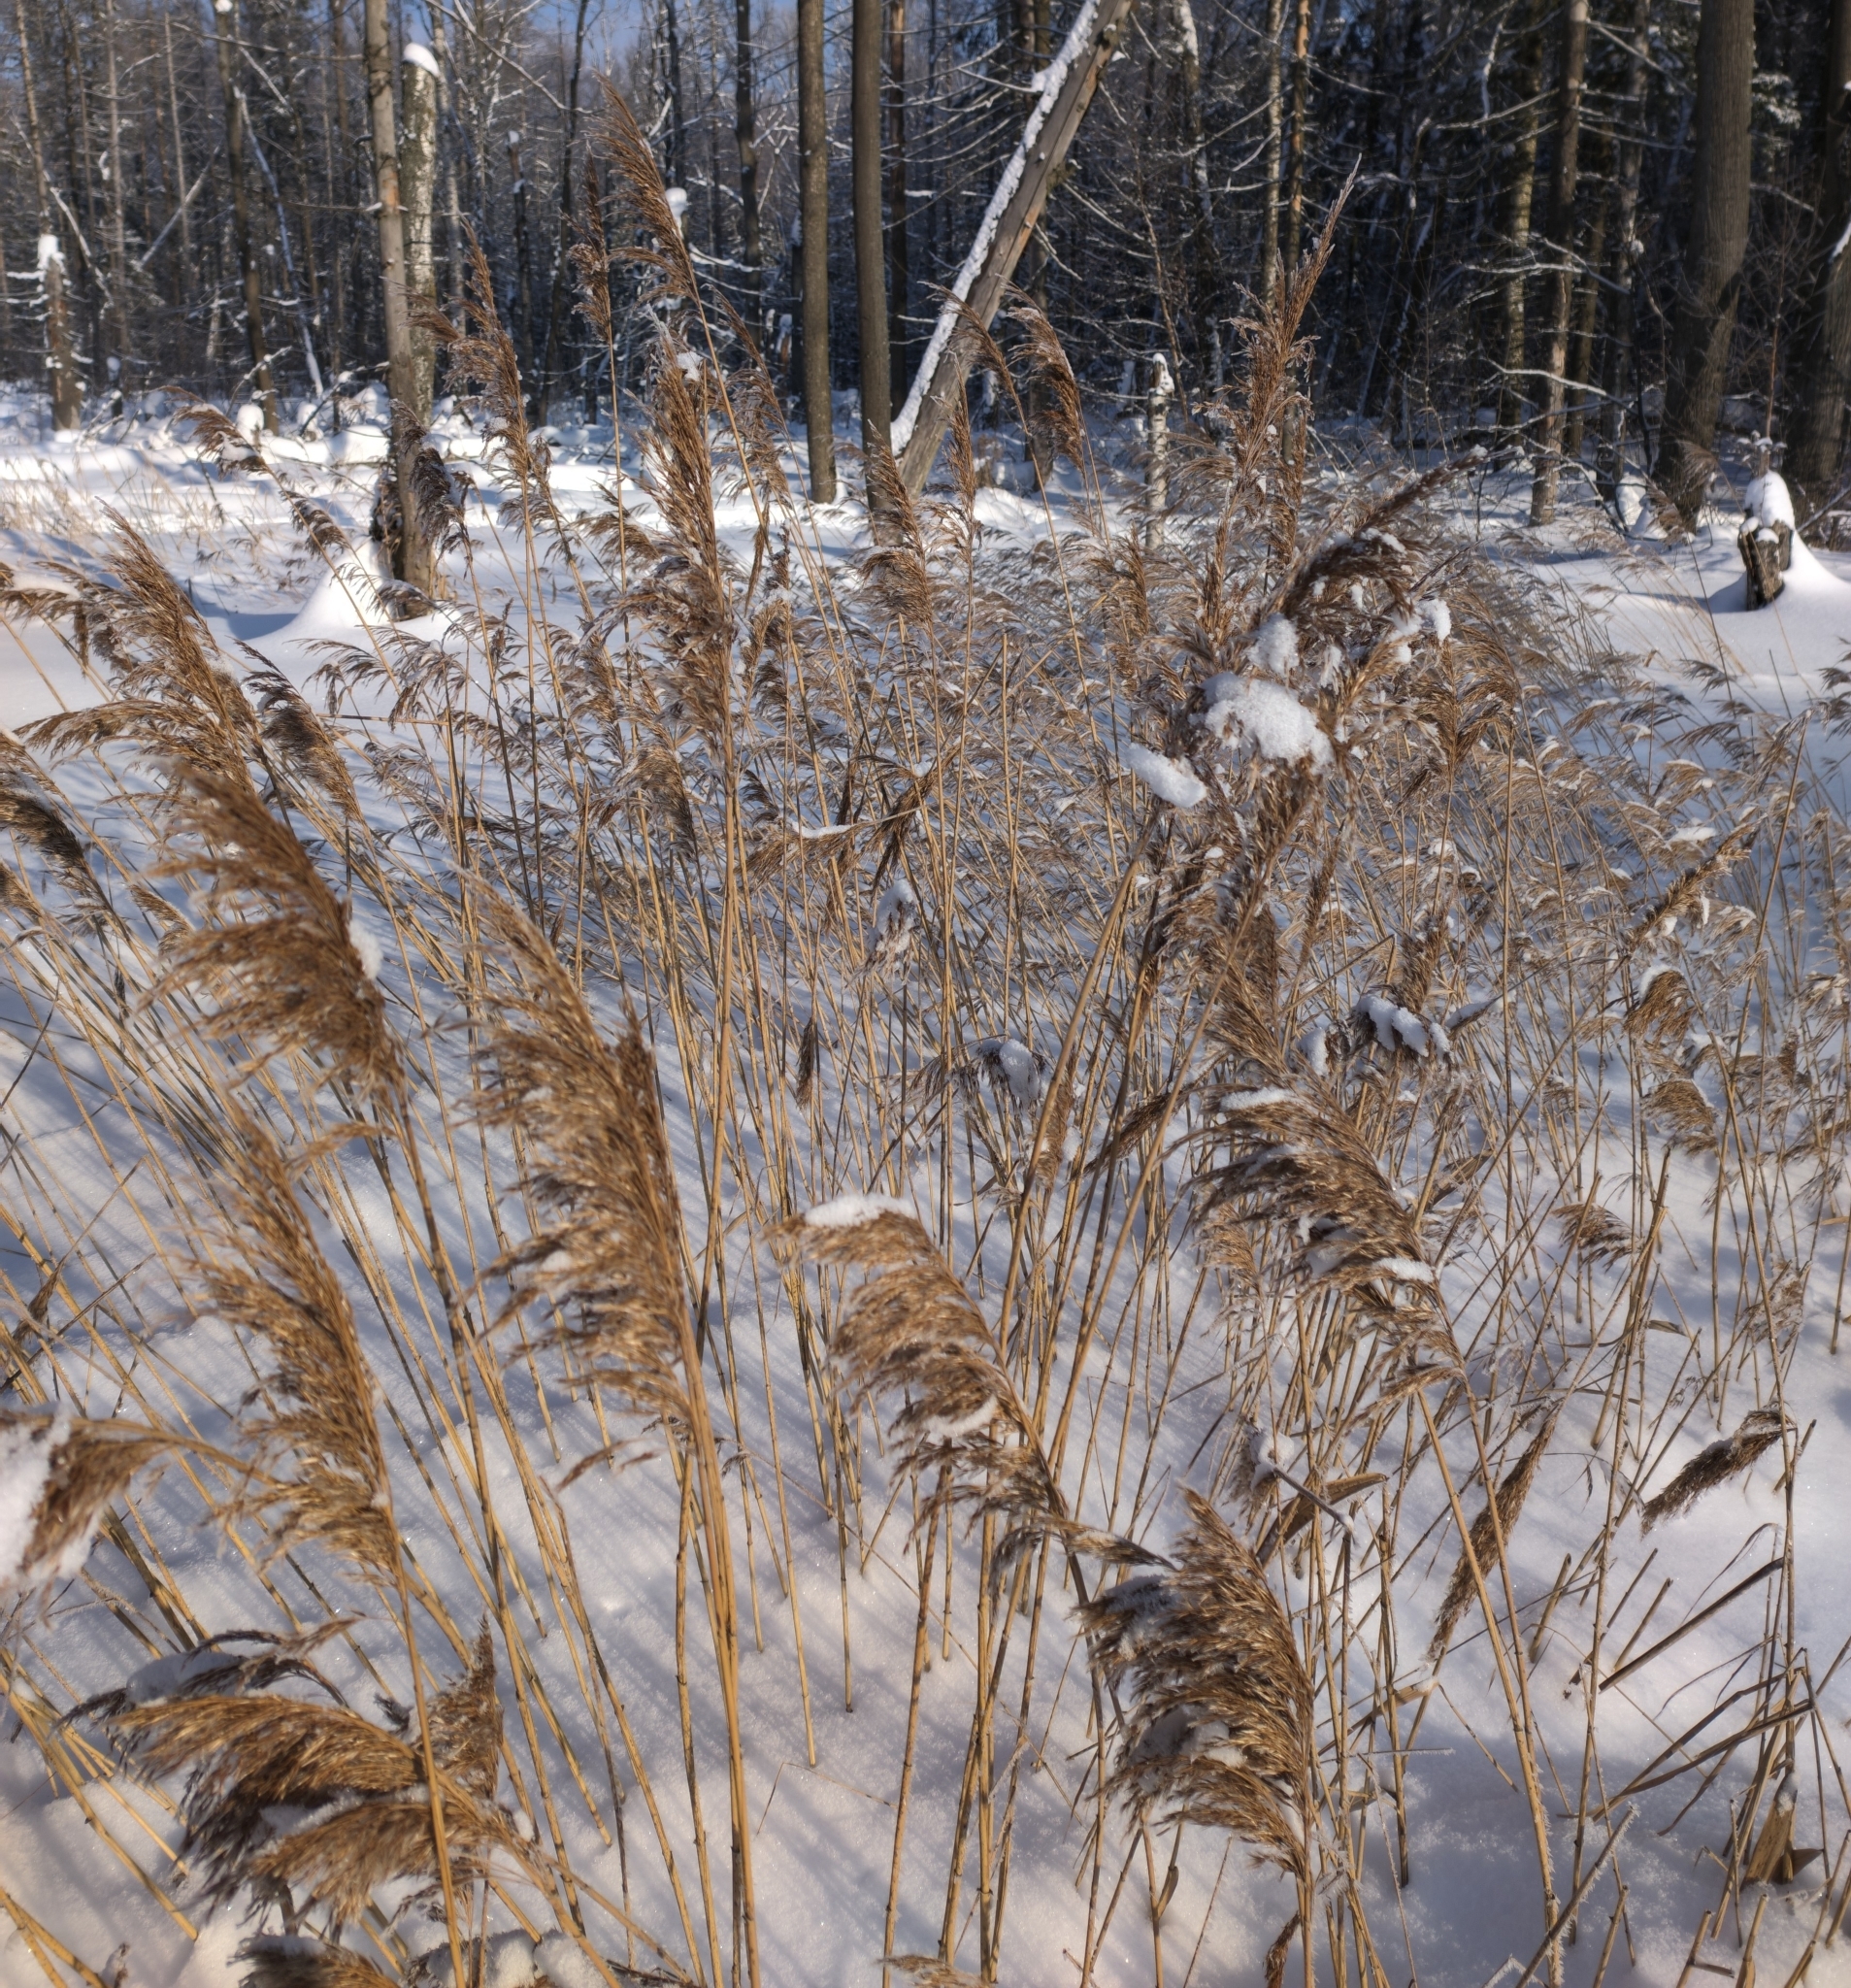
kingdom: Plantae
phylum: Tracheophyta
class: Liliopsida
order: Poales
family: Poaceae
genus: Phragmites
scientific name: Phragmites australis
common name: Common reed
